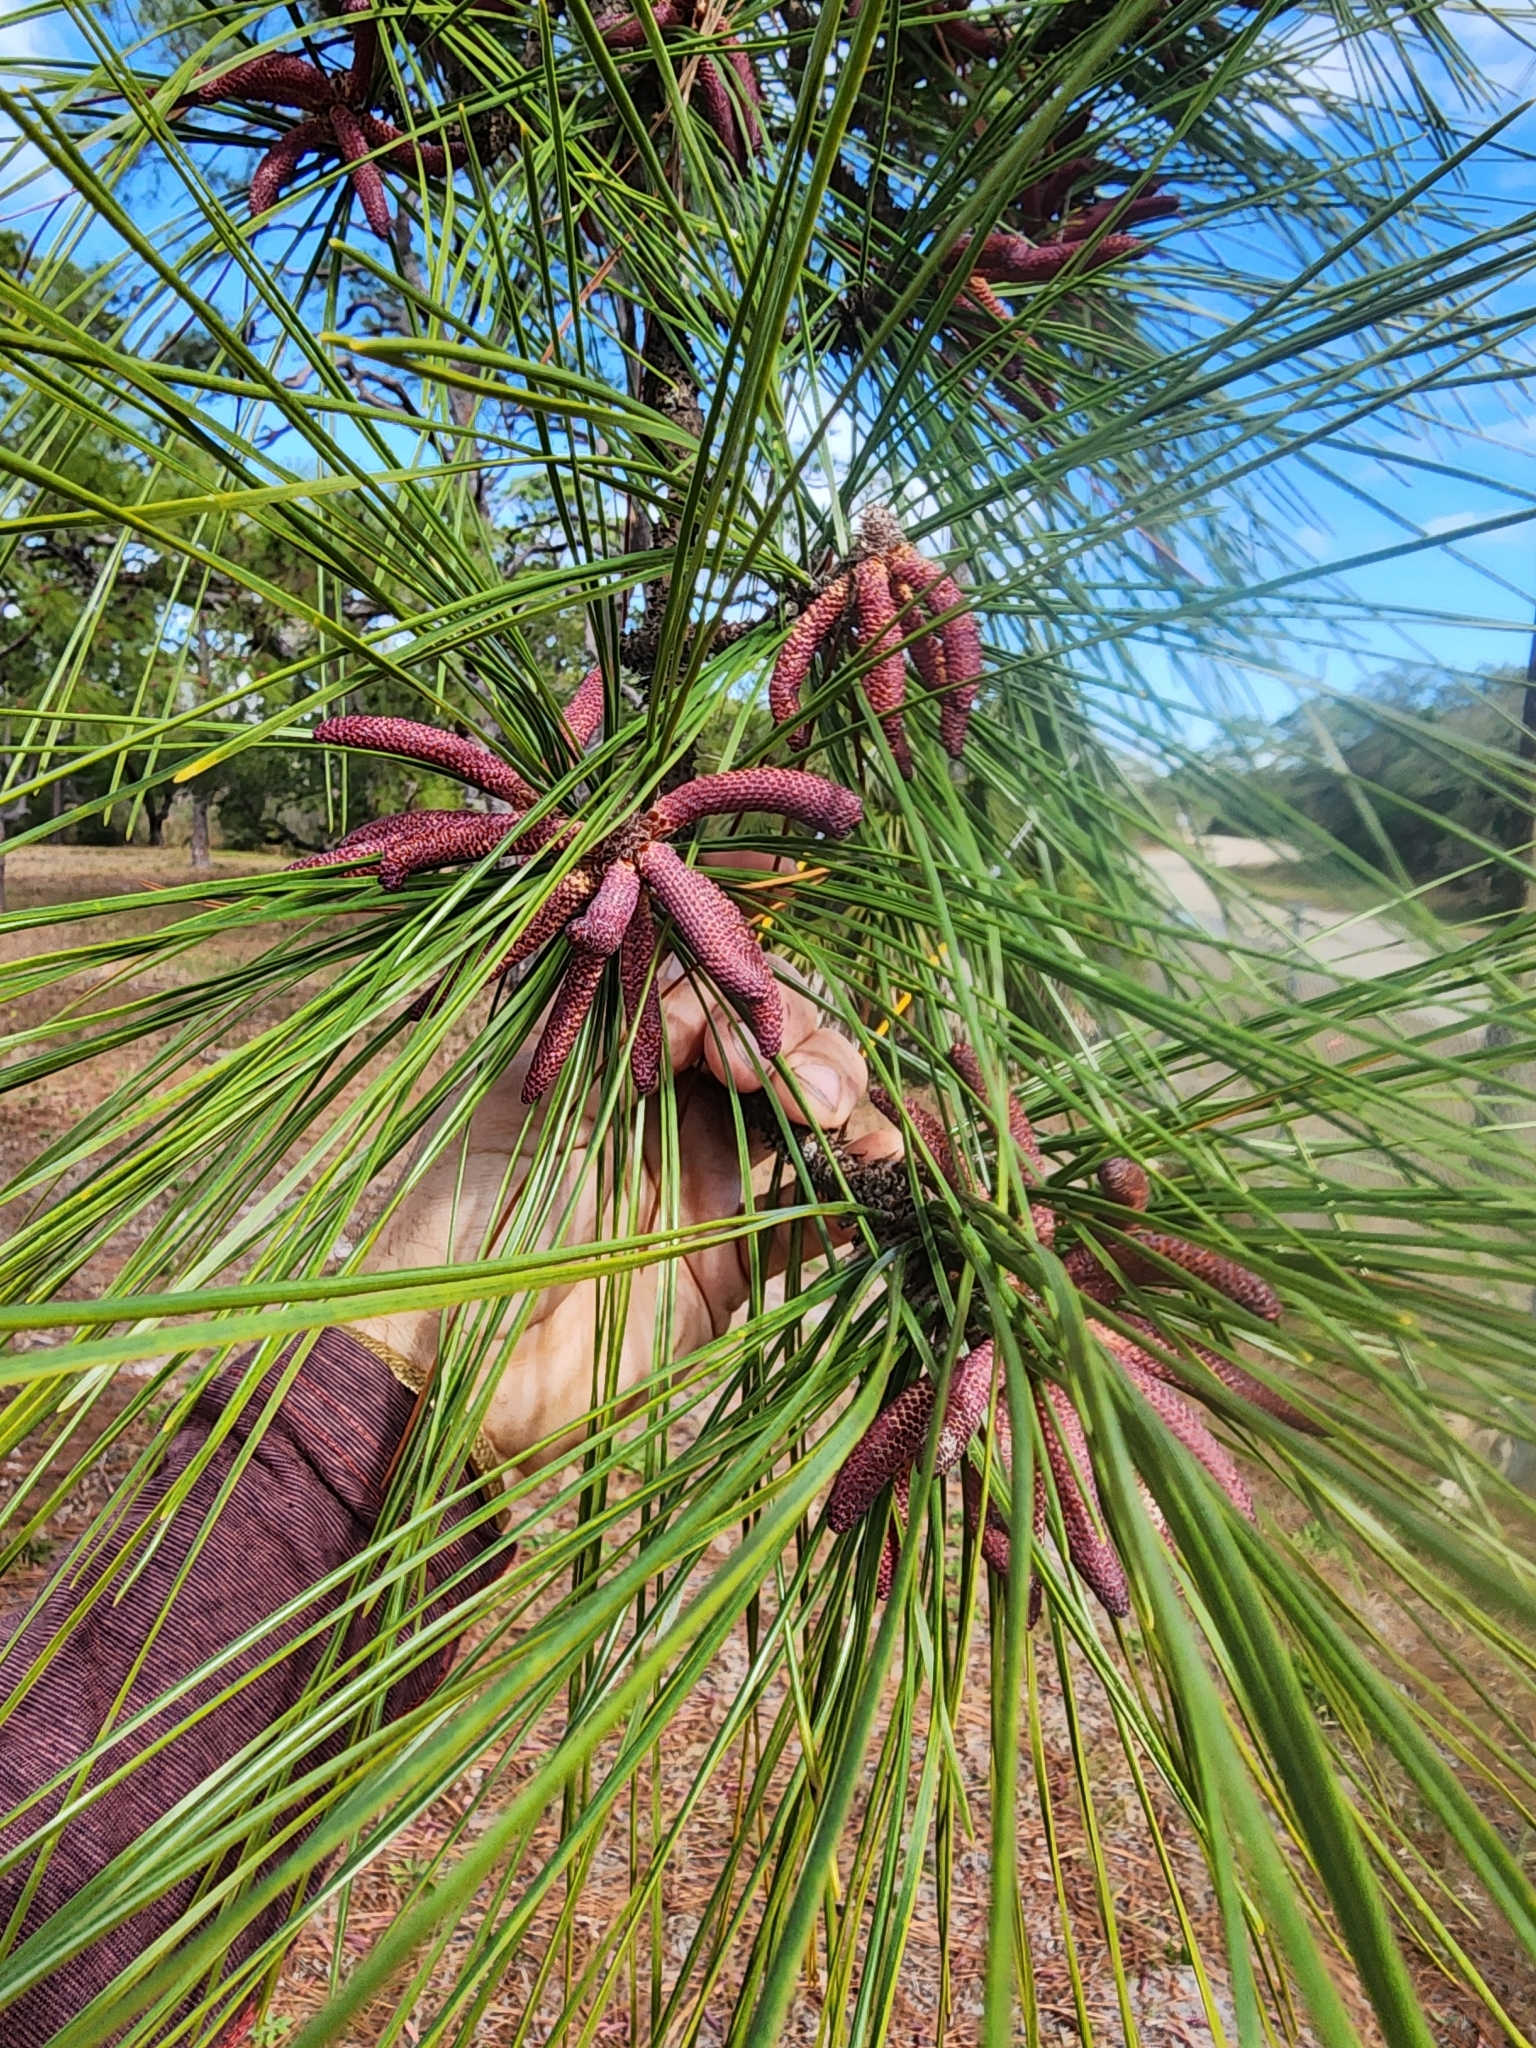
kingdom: Plantae
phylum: Tracheophyta
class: Pinopsida
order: Pinales
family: Pinaceae
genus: Pinus
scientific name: Pinus elliottii
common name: Slash pine
